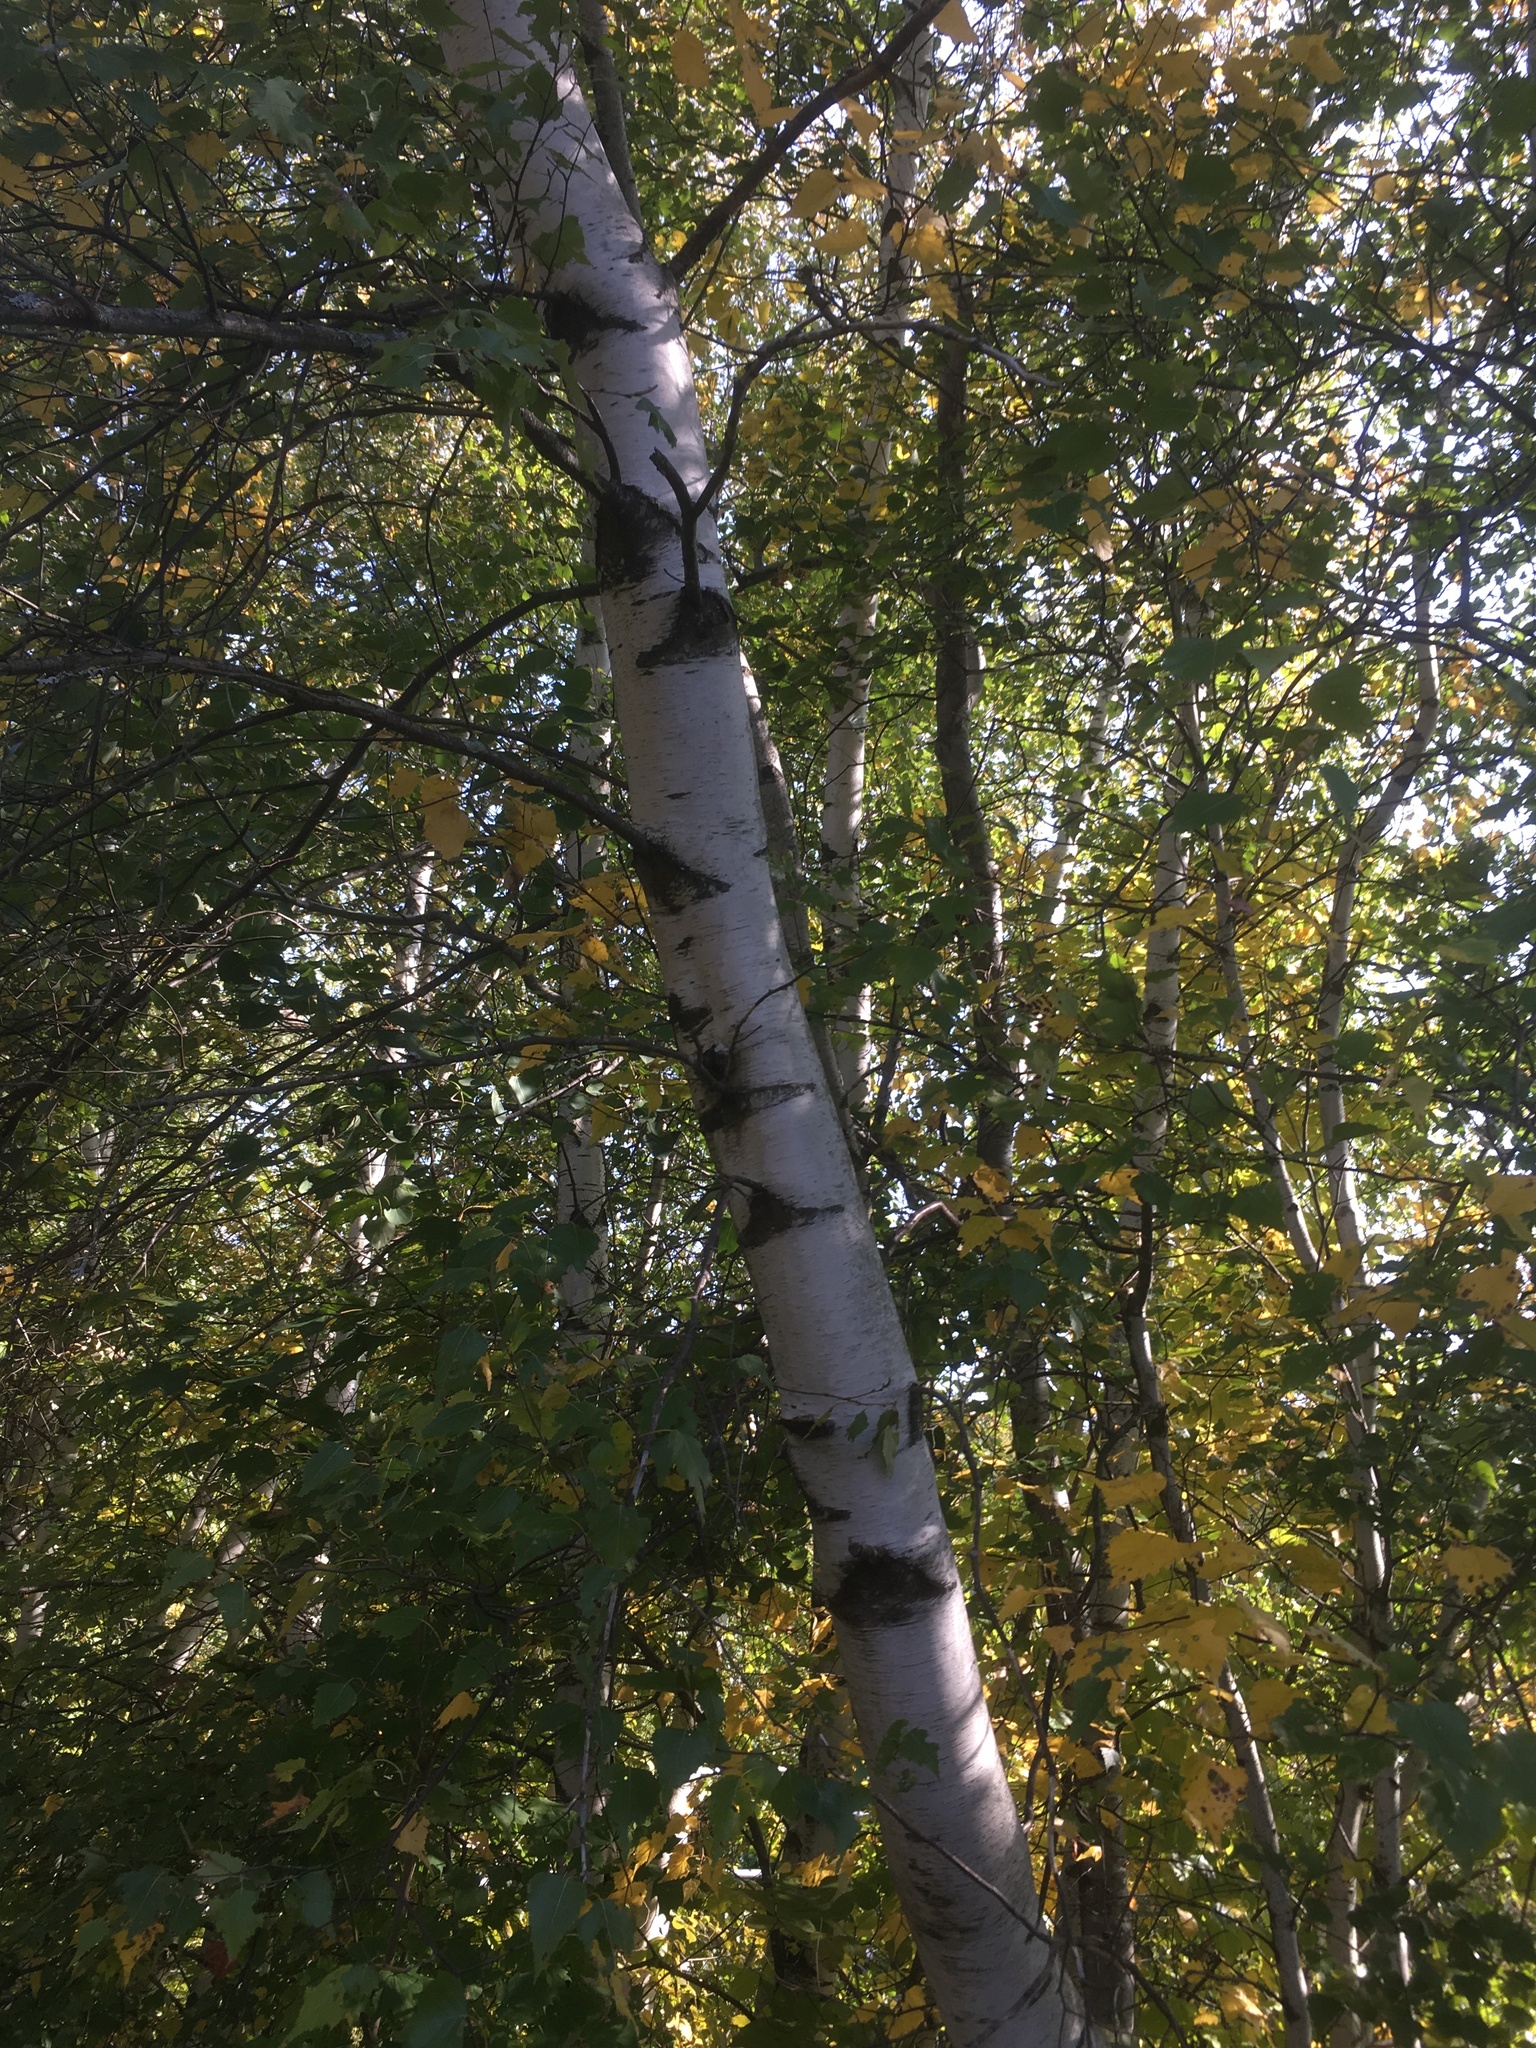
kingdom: Plantae
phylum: Tracheophyta
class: Magnoliopsida
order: Fagales
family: Betulaceae
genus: Betula
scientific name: Betula populifolia
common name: Fire birch
